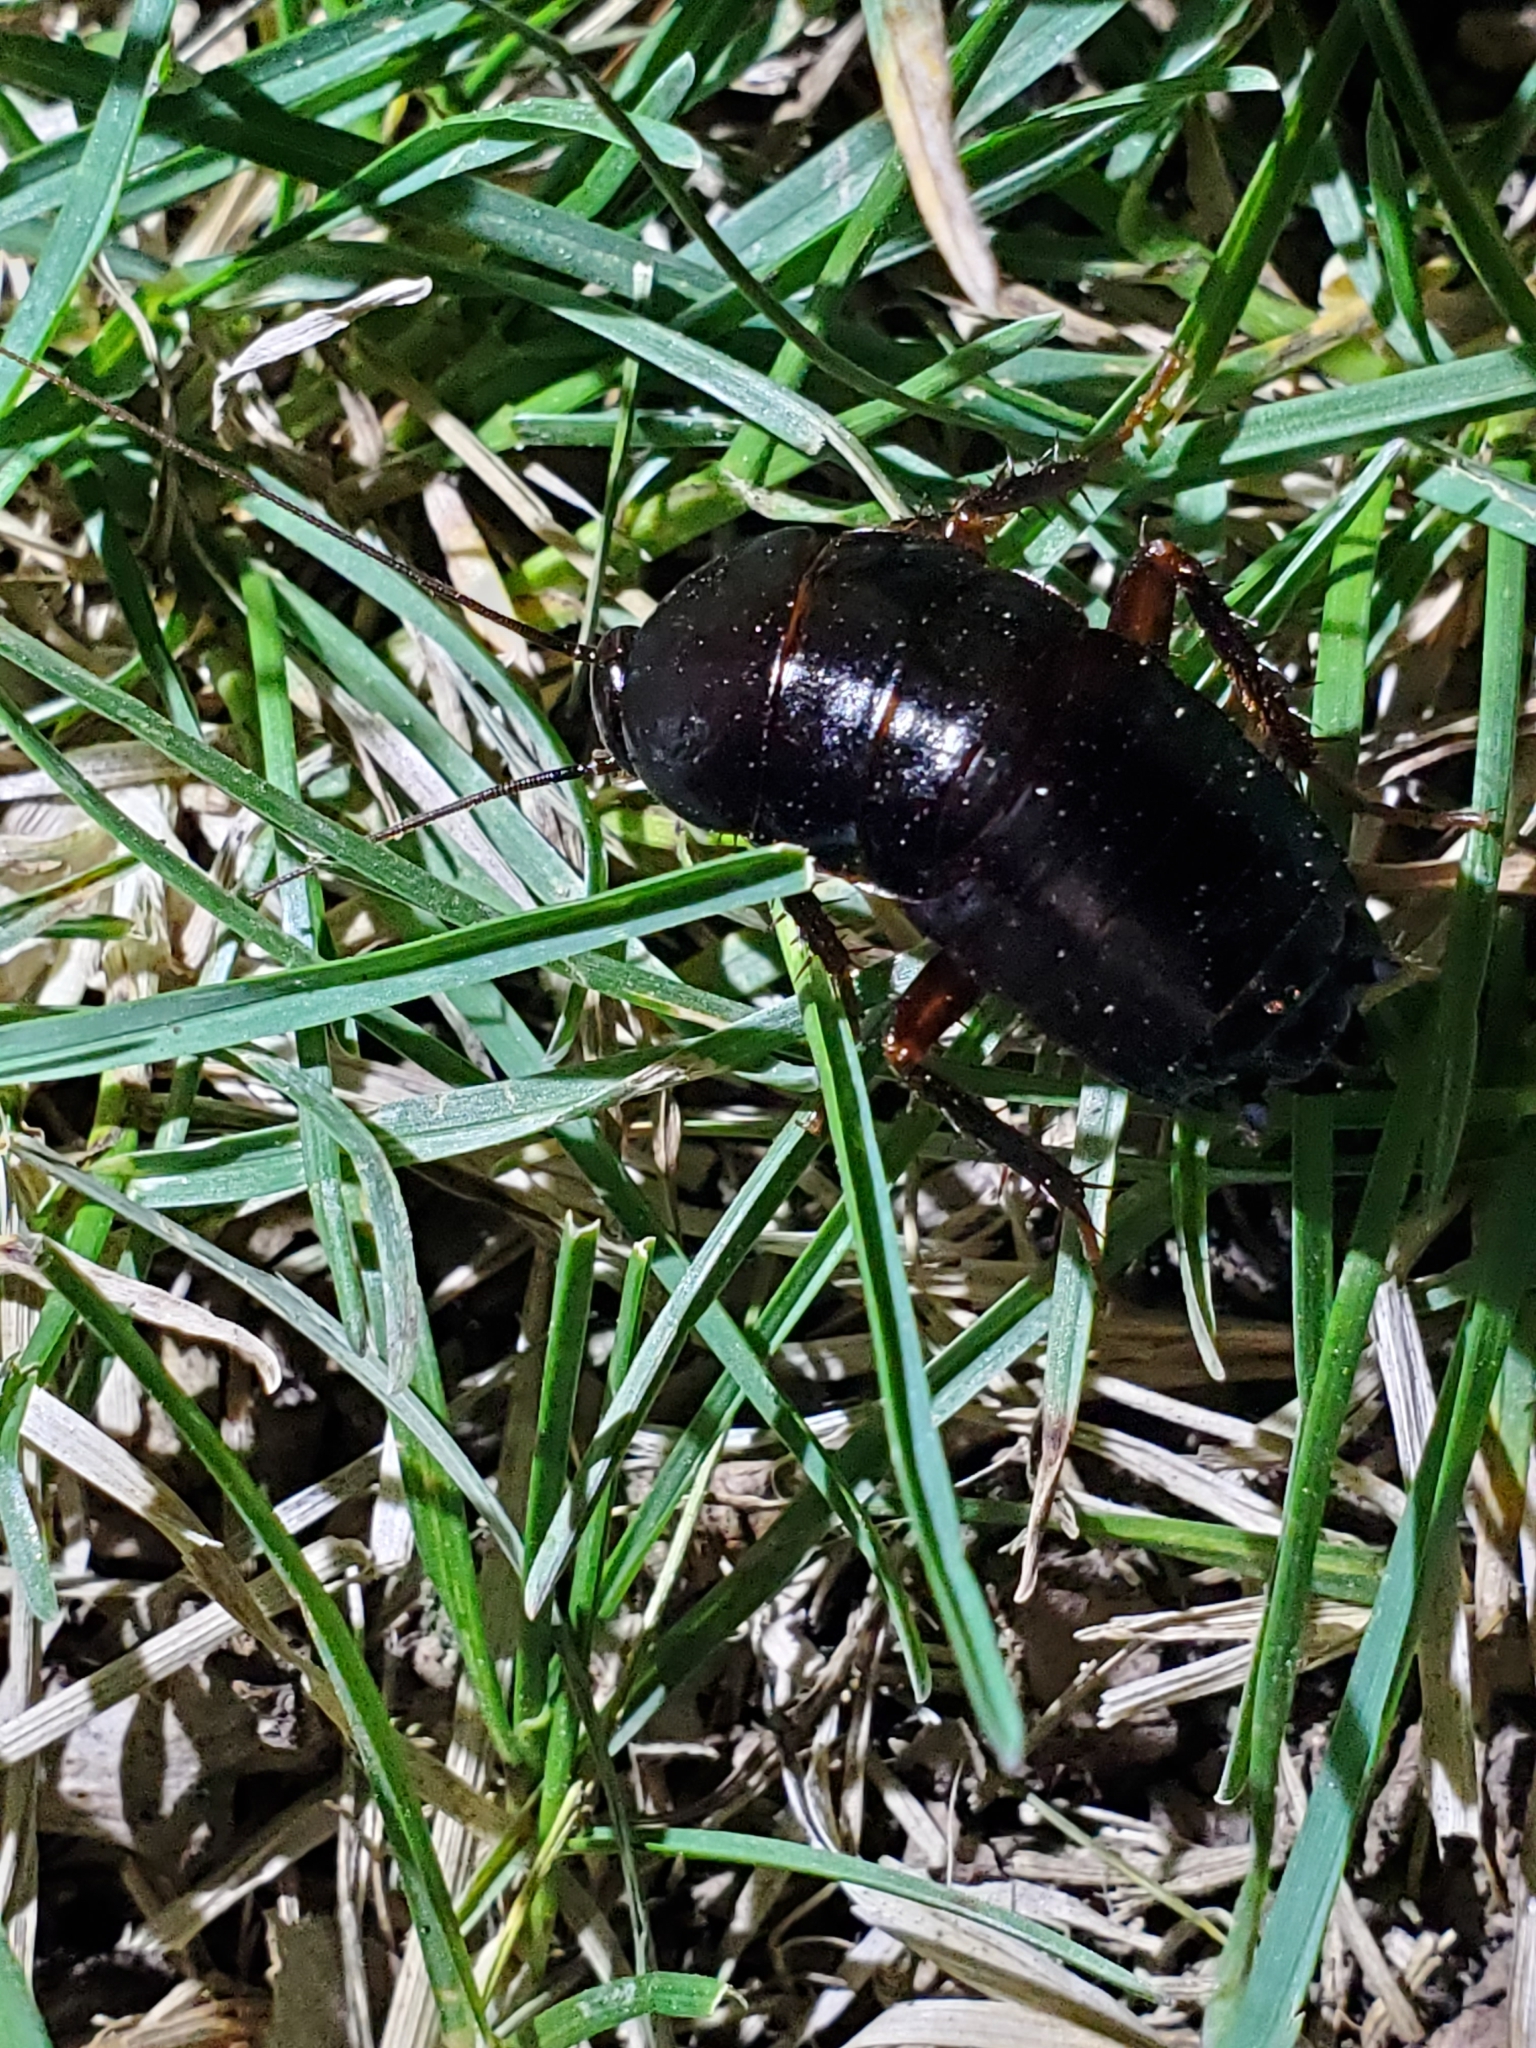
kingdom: Animalia
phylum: Arthropoda
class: Insecta
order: Blattodea
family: Blattidae
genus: Blatta
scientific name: Blatta orientalis
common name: Oriental cockroach
